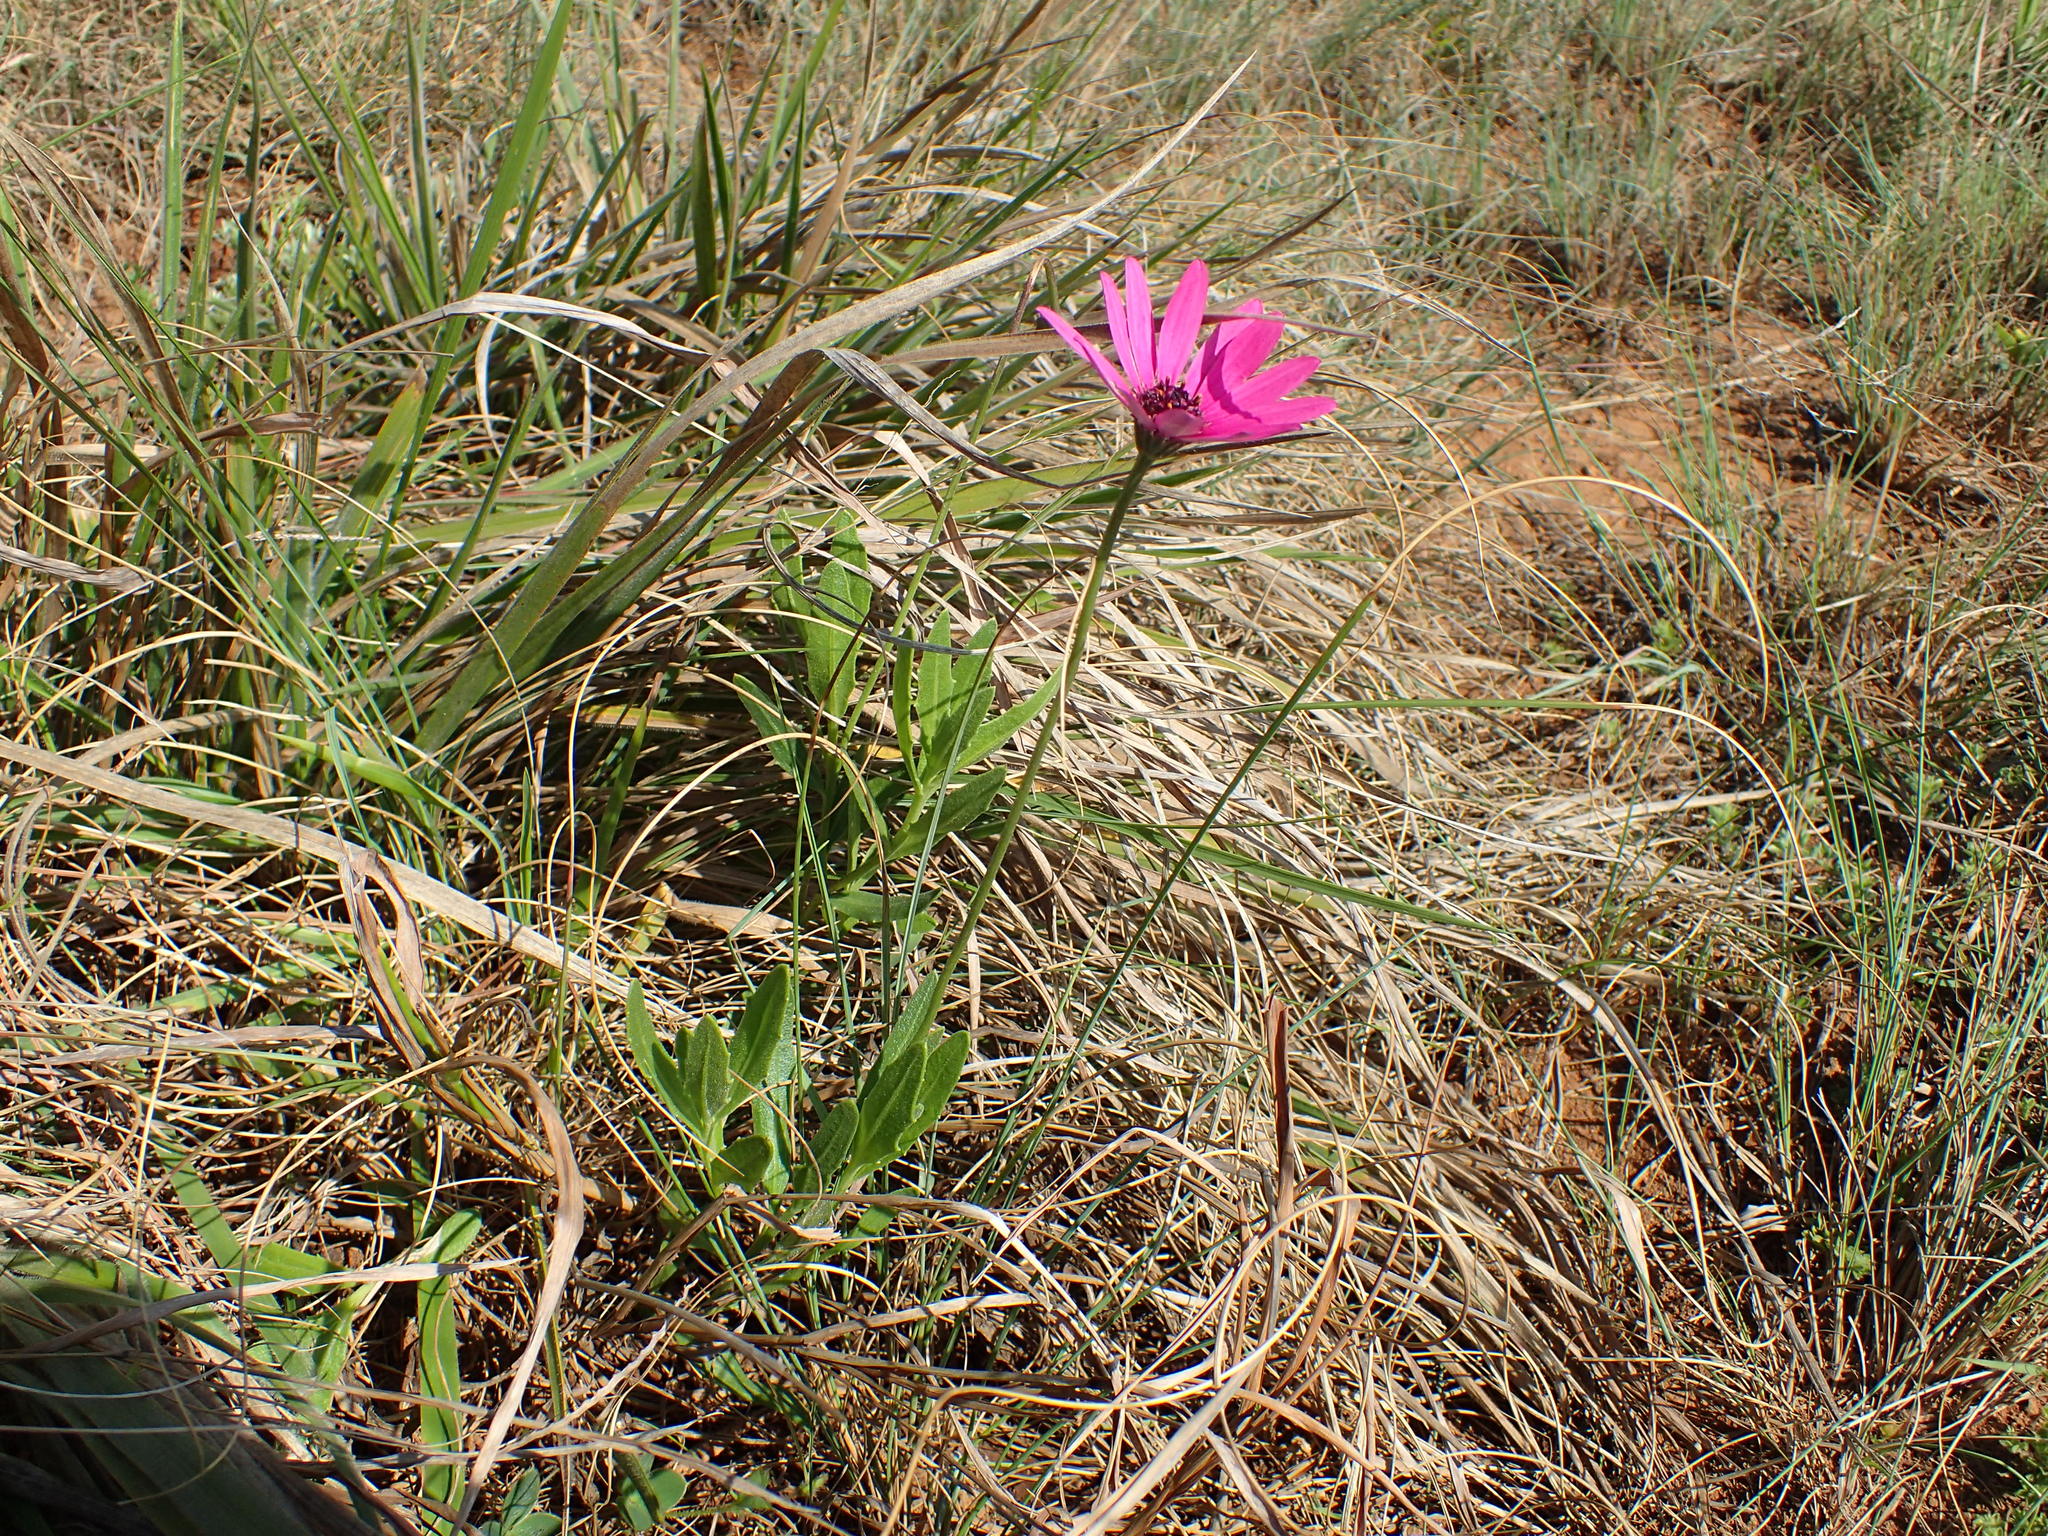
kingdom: Plantae
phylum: Tracheophyta
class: Magnoliopsida
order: Asterales
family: Asteraceae
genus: Dimorphotheca
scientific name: Dimorphotheca jucunda
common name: Osteospermum
